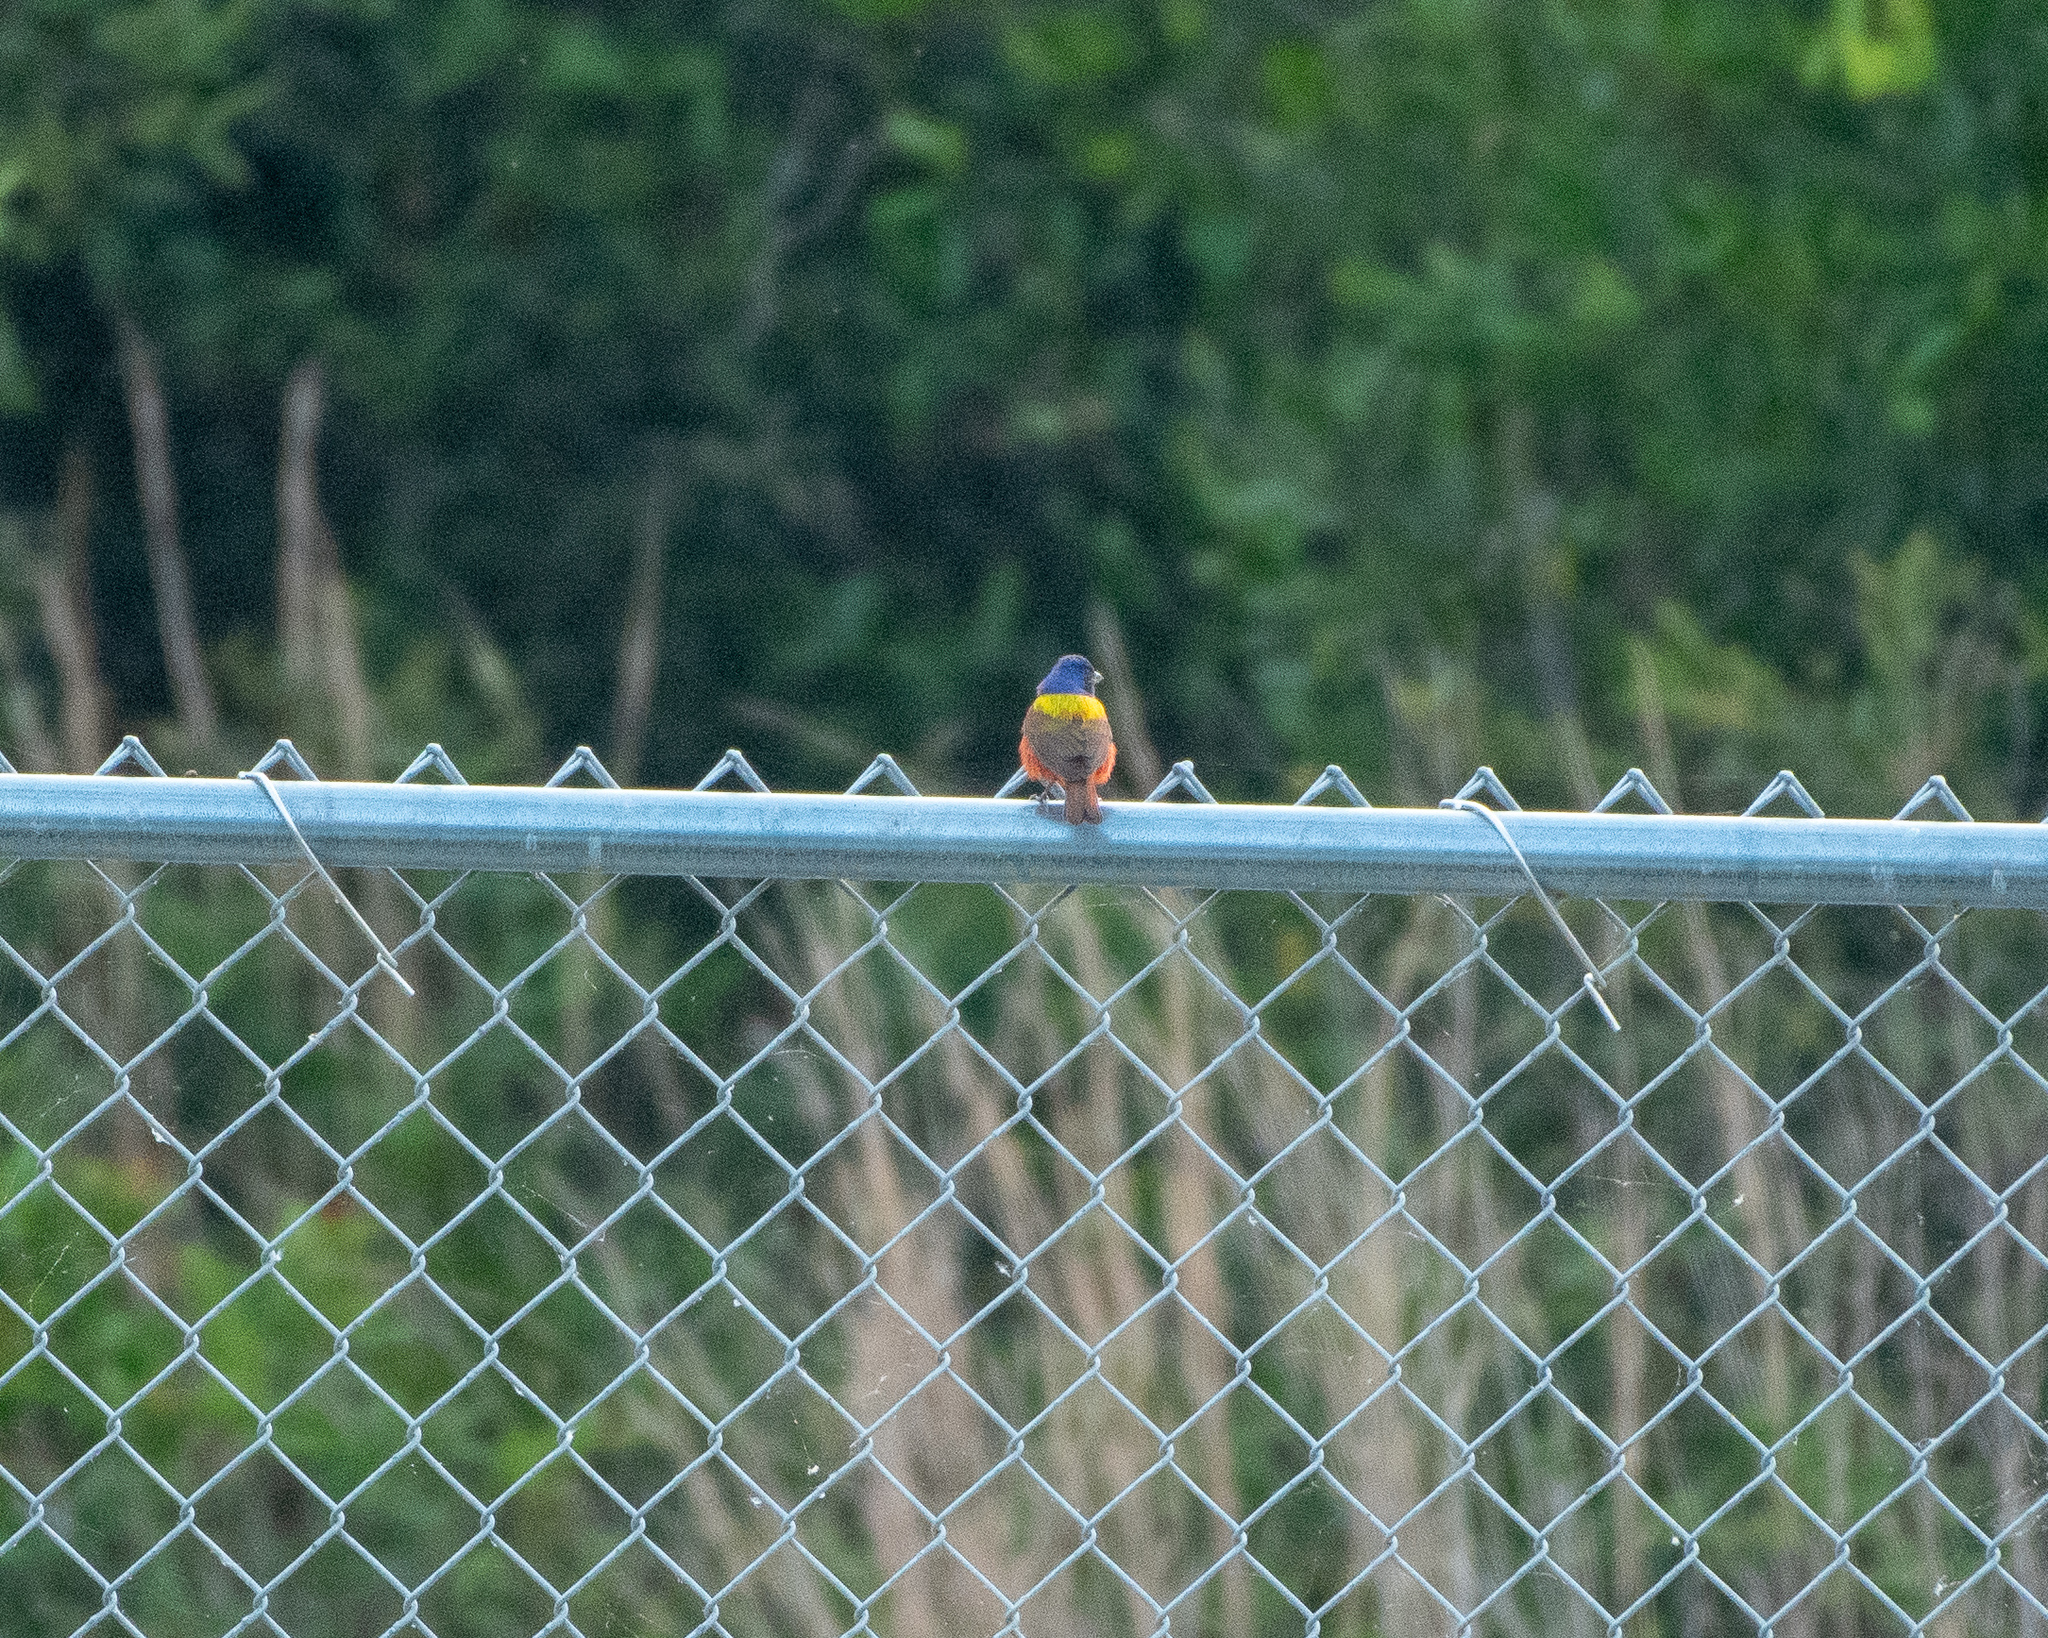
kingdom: Animalia
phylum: Chordata
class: Aves
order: Passeriformes
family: Cardinalidae
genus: Passerina
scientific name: Passerina ciris
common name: Painted bunting
